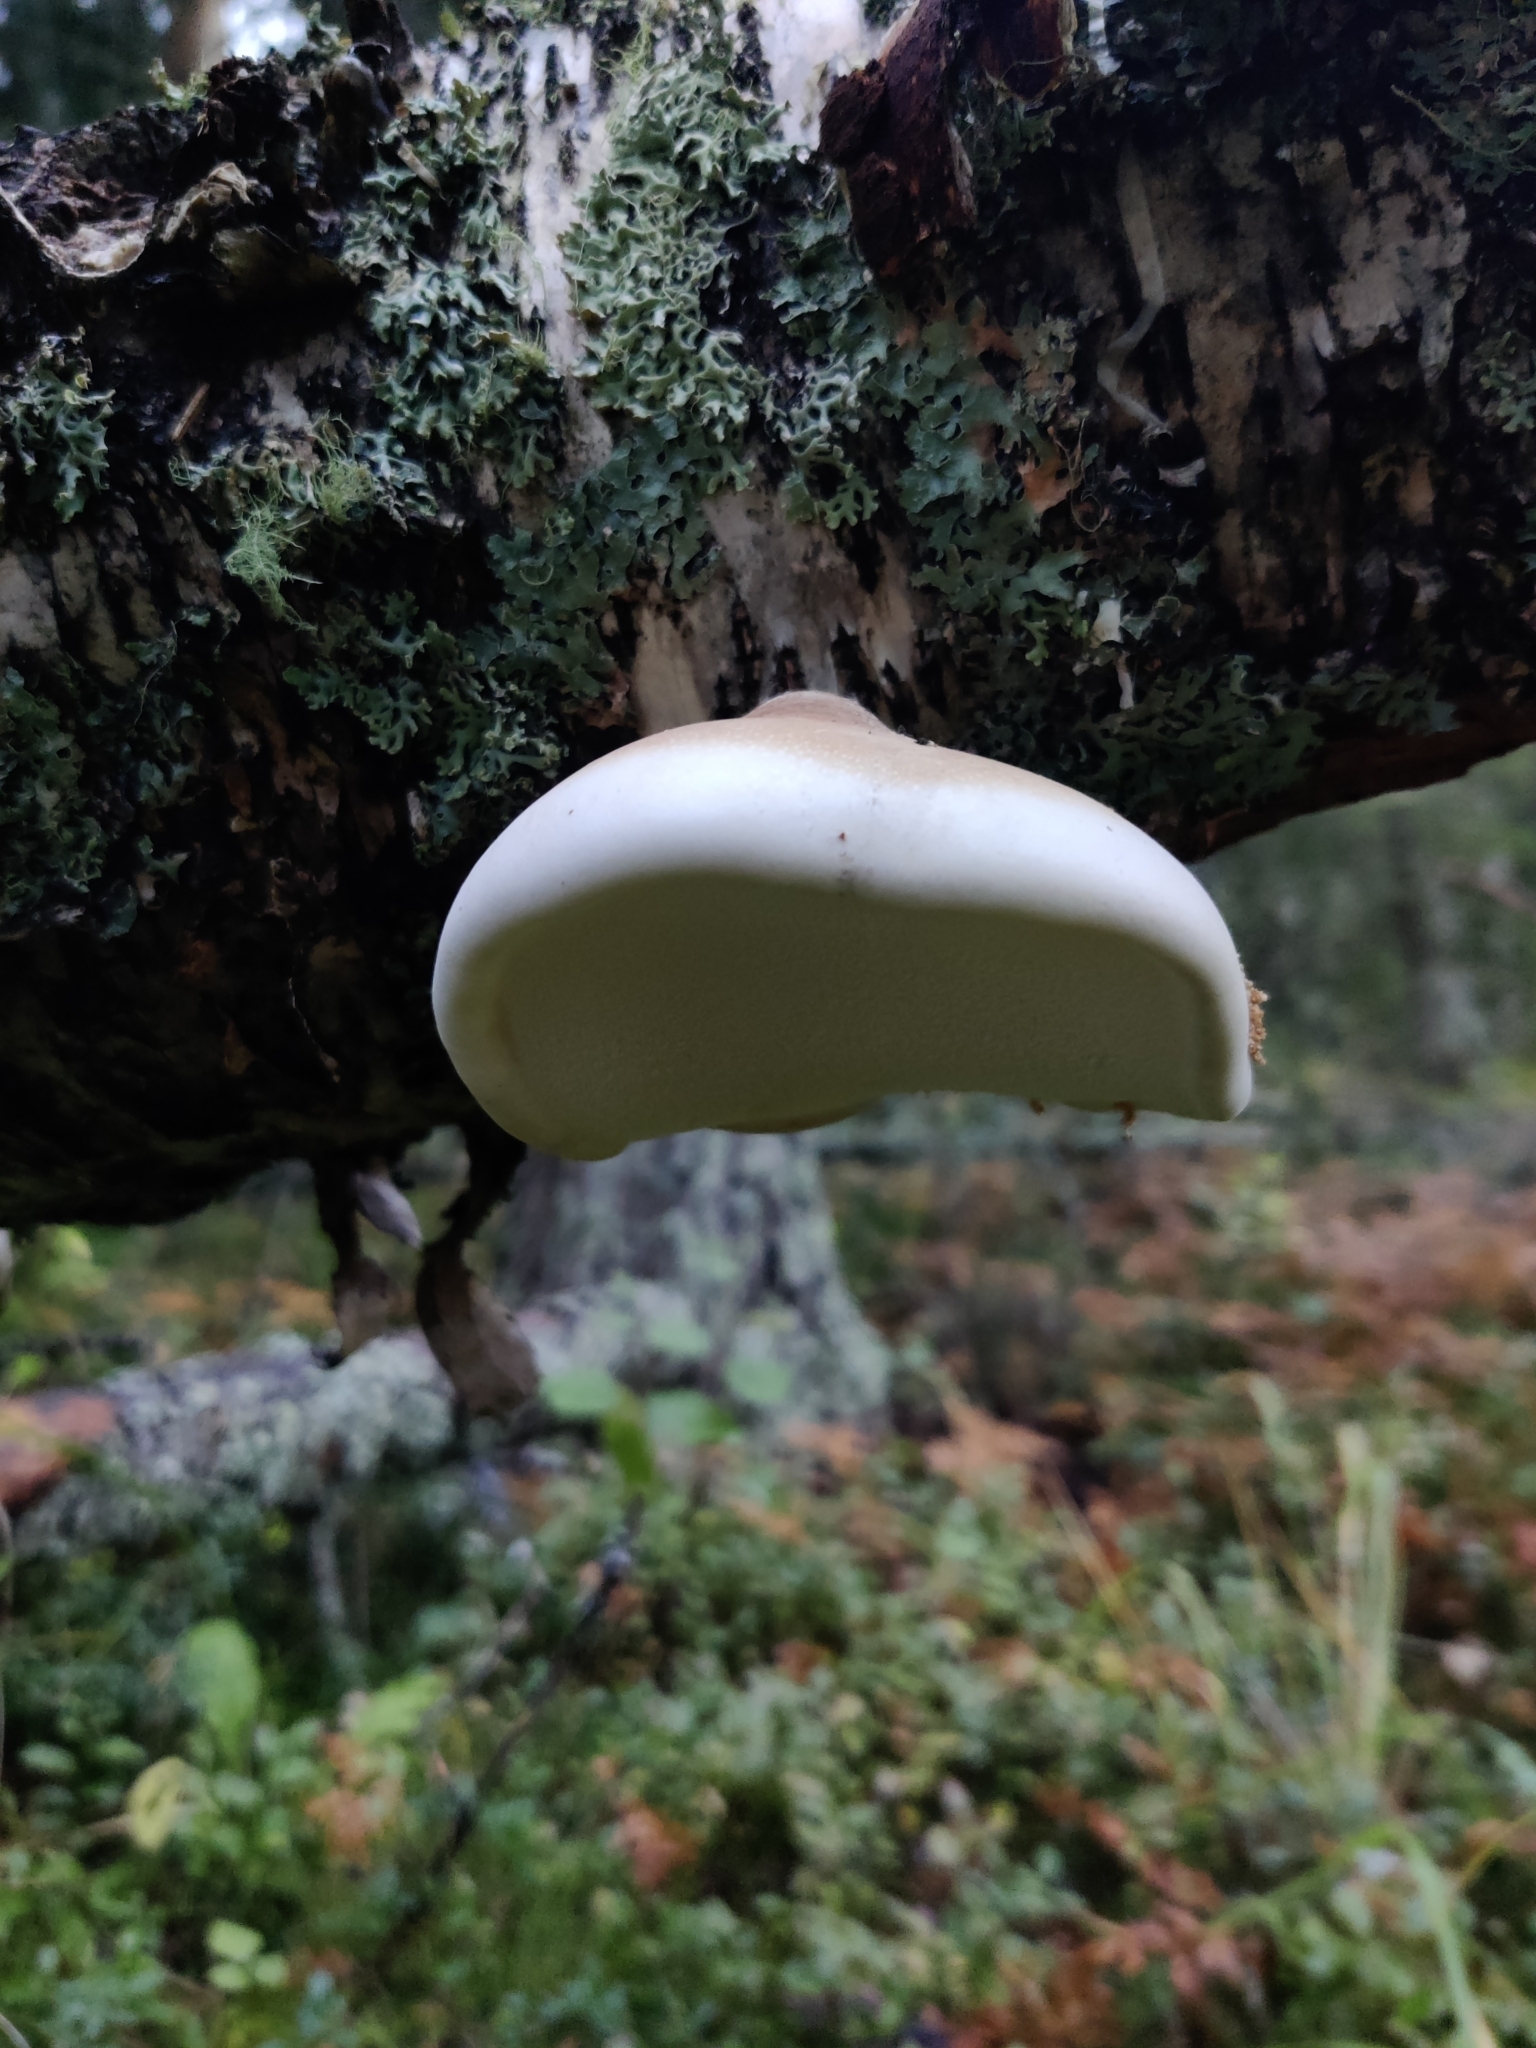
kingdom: Fungi
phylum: Basidiomycota
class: Agaricomycetes
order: Polyporales
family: Fomitopsidaceae
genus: Fomitopsis
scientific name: Fomitopsis betulina
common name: Birch polypore
